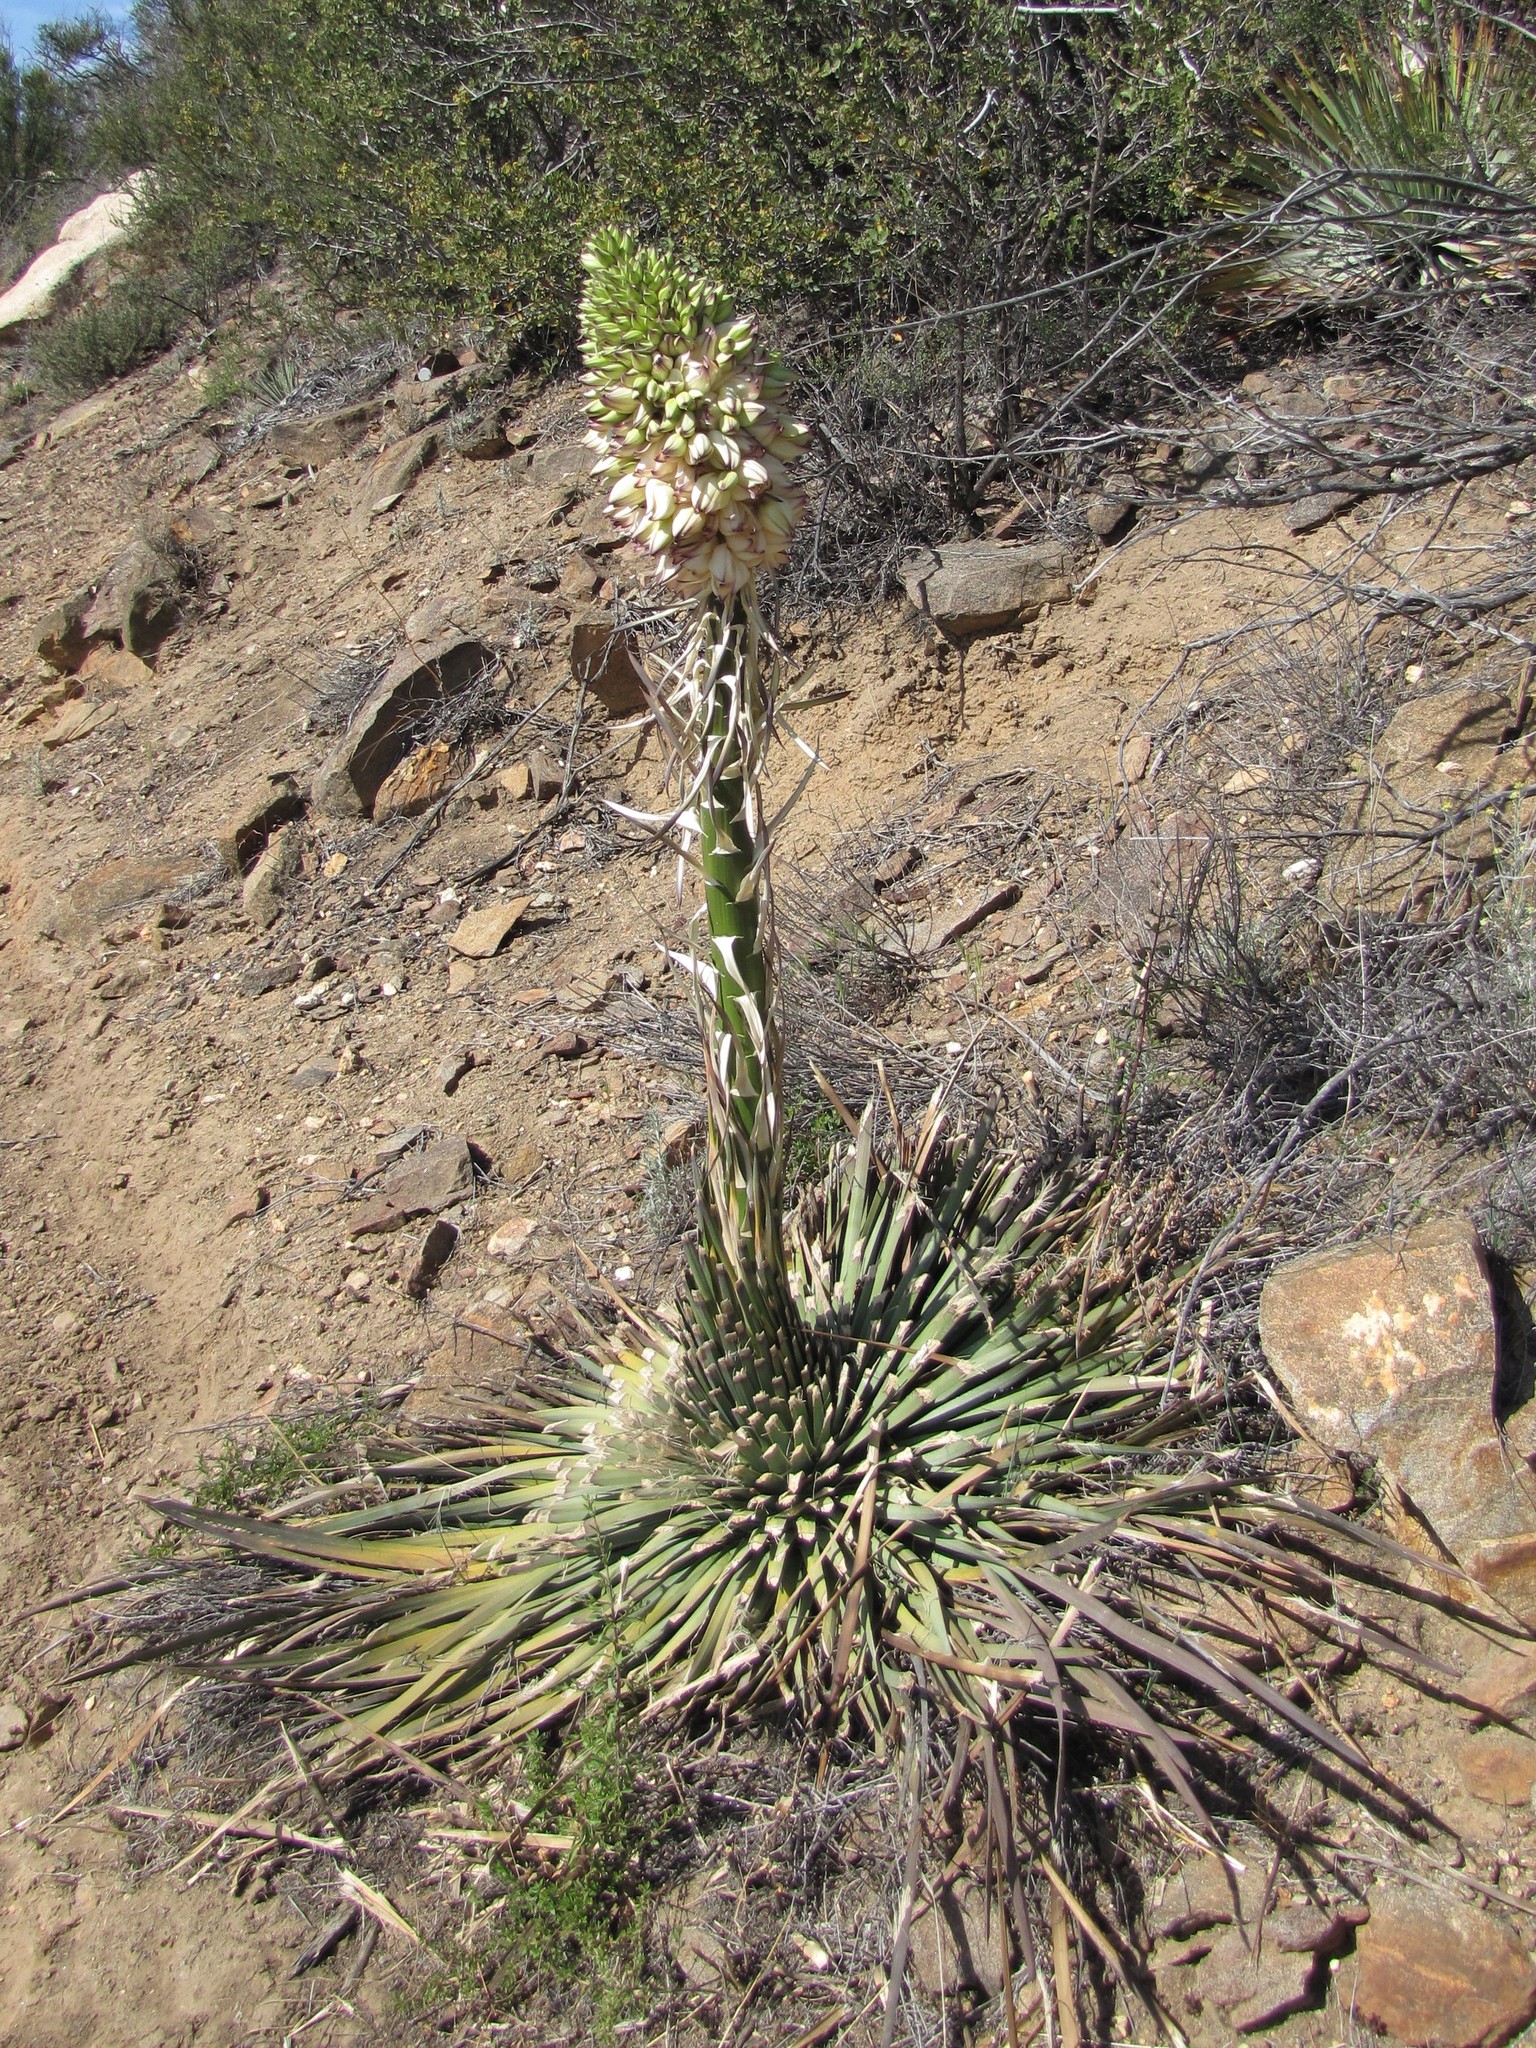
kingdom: Plantae
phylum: Tracheophyta
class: Liliopsida
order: Asparagales
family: Asparagaceae
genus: Hesperoyucca
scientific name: Hesperoyucca whipplei
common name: Our lord's-candle
